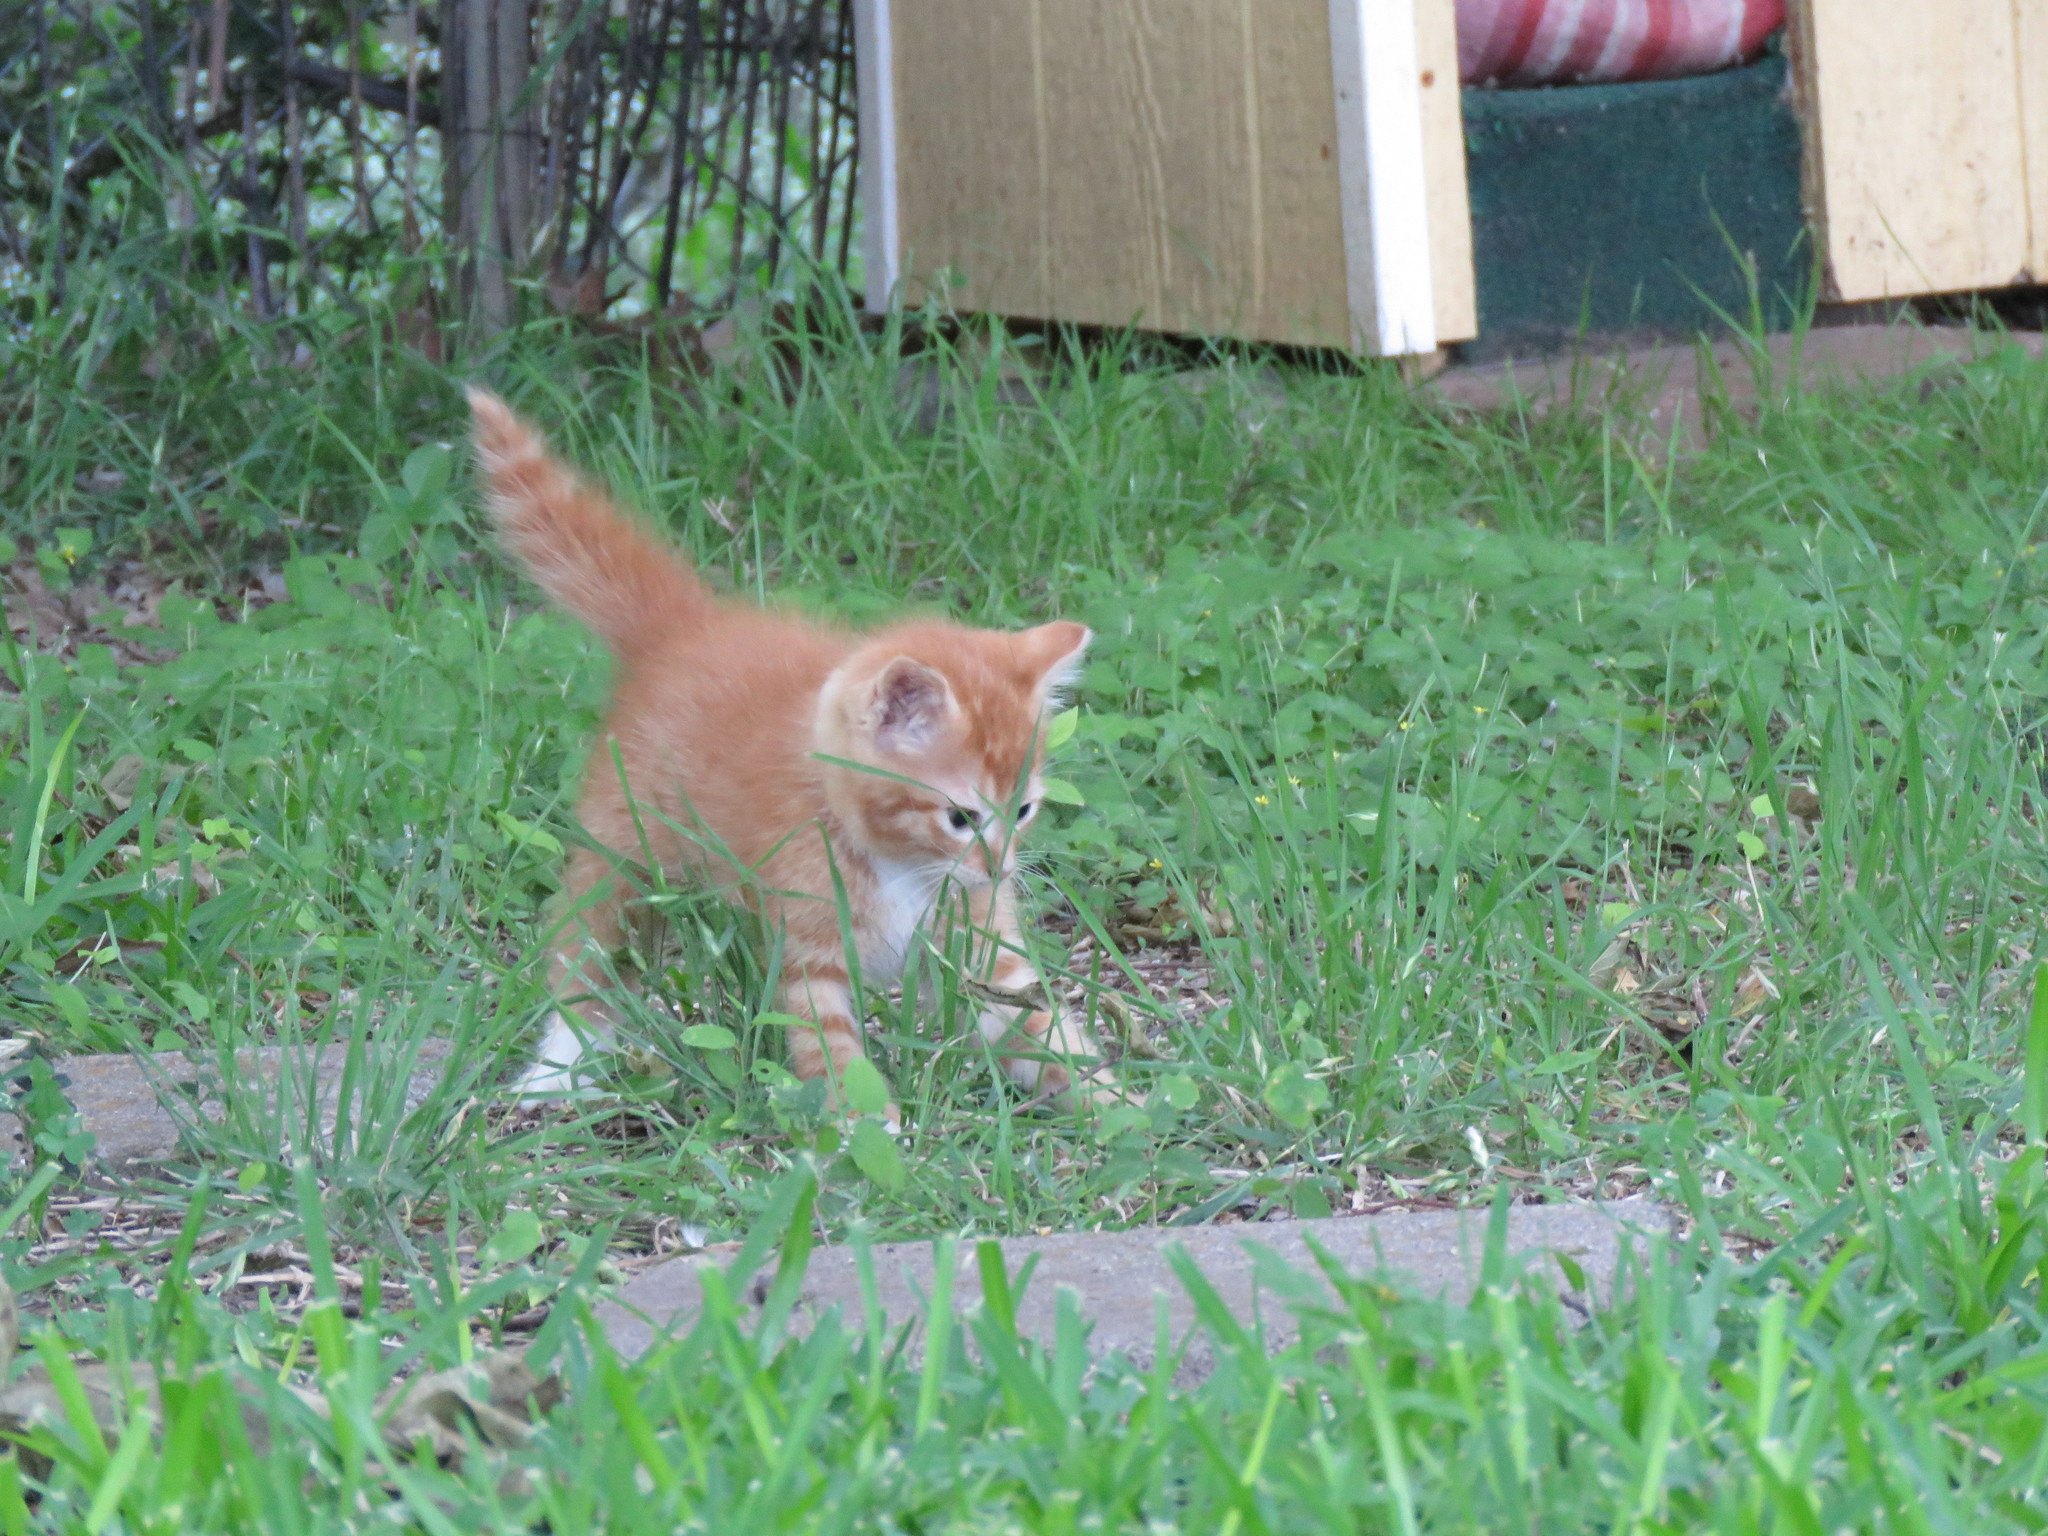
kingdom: Animalia
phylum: Chordata
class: Mammalia
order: Carnivora
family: Felidae
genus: Felis
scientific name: Felis catus
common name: Domestic cat
